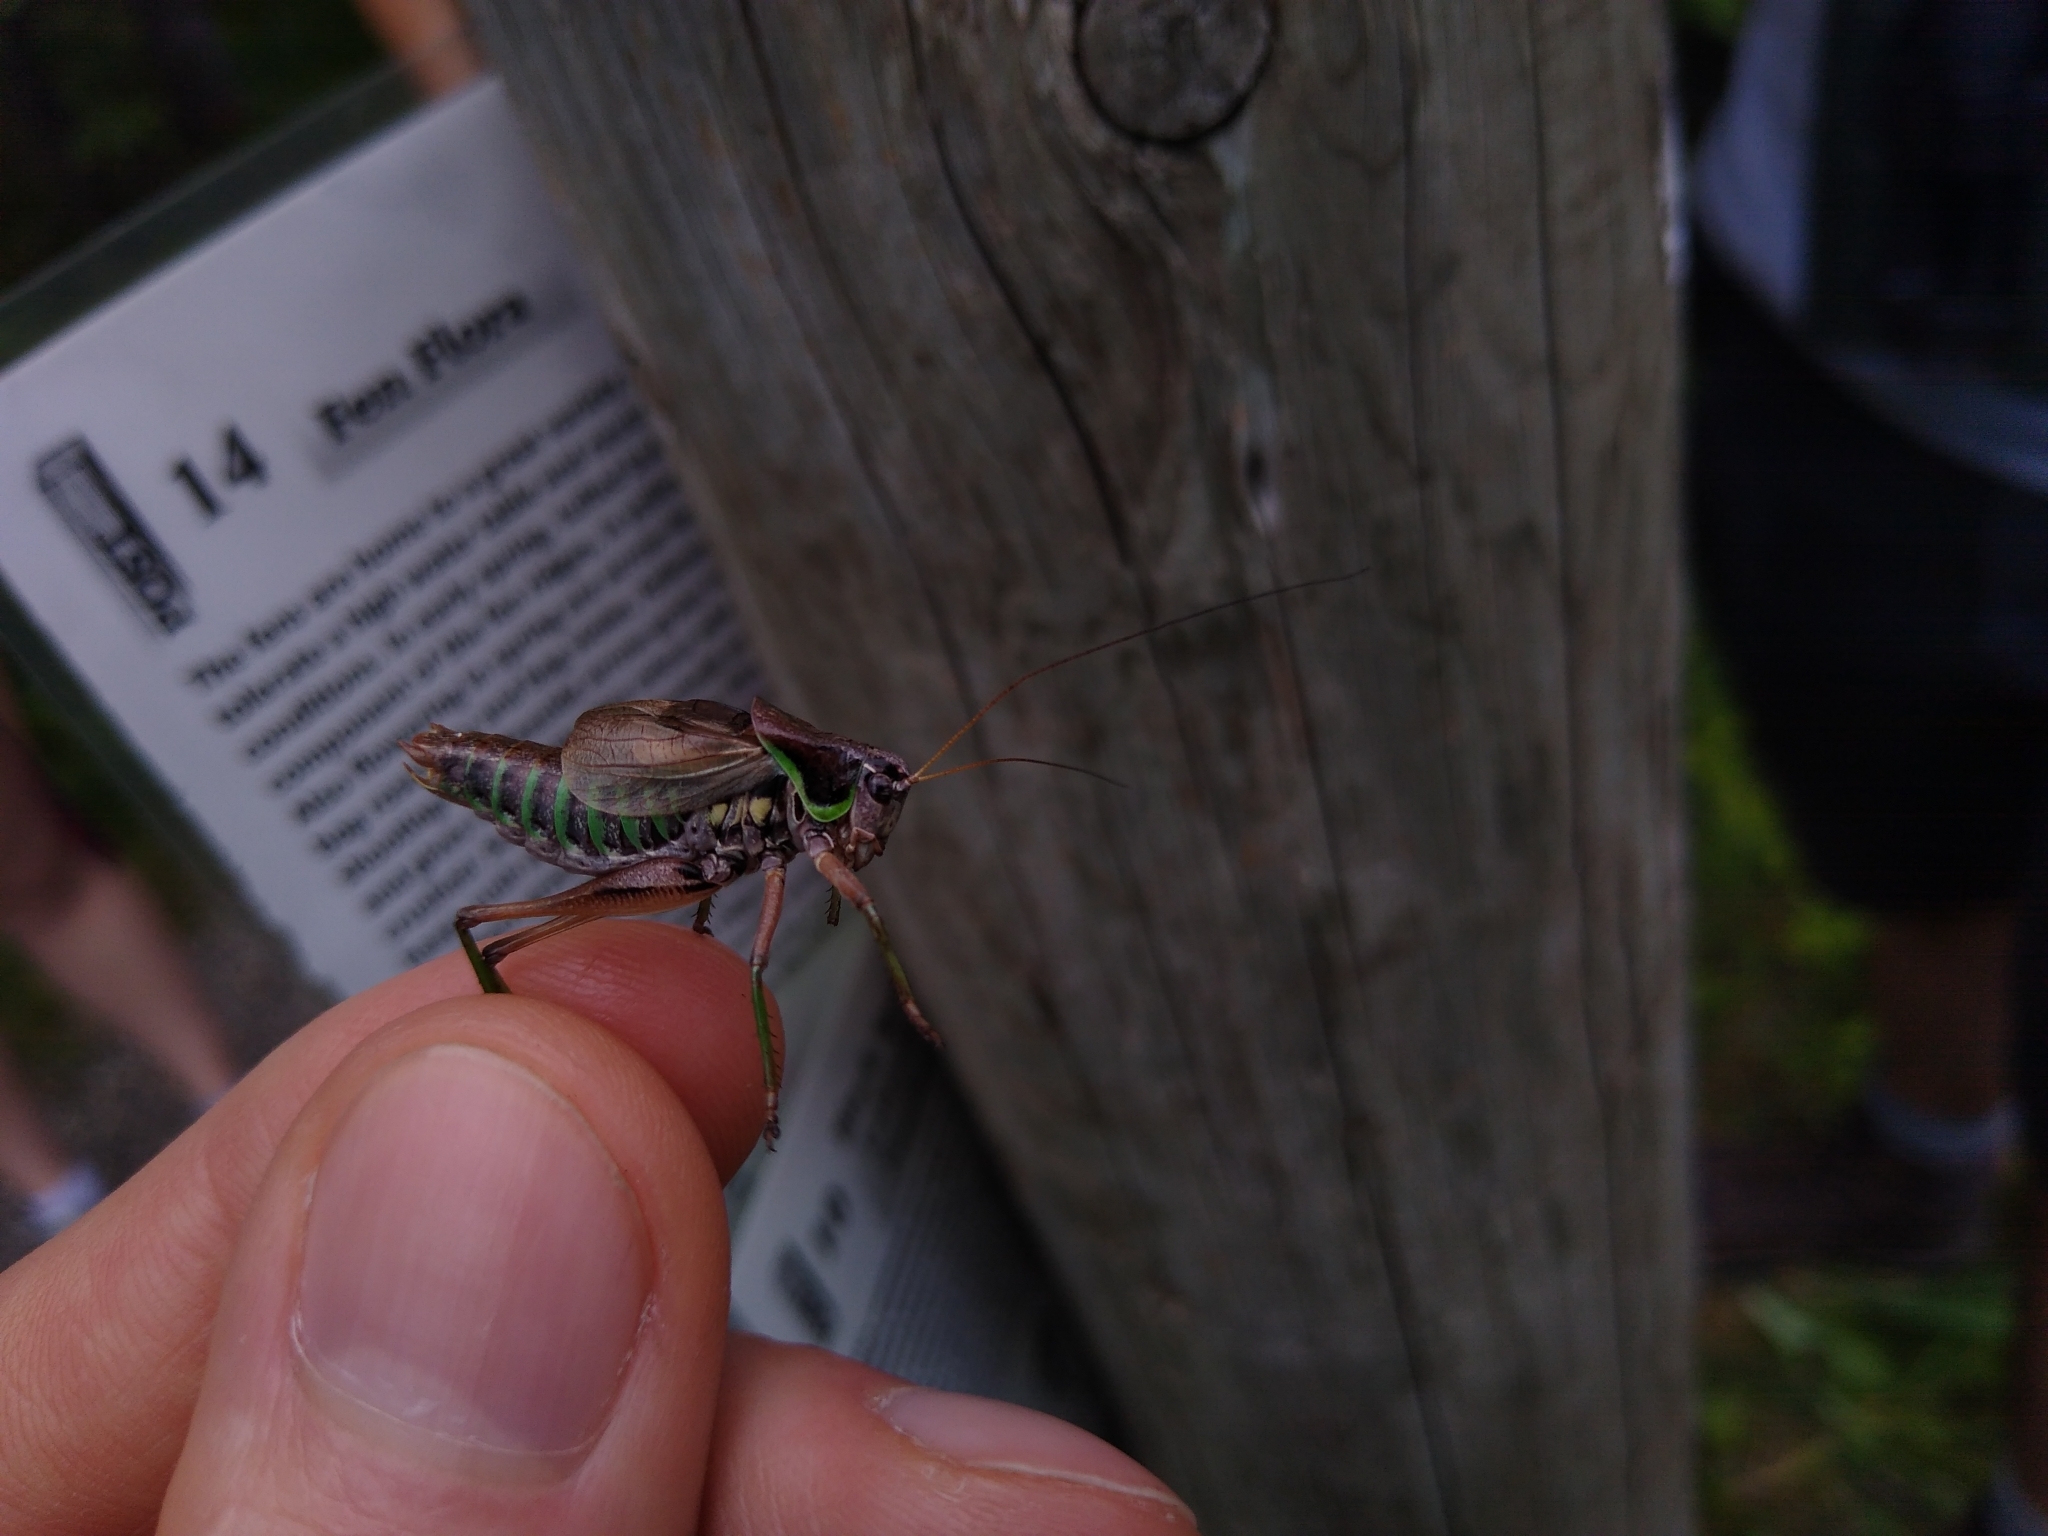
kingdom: Animalia
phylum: Arthropoda
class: Insecta
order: Orthoptera
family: Tettigoniidae
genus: Sphagniana
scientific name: Sphagniana sphagnorum
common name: Bog katydid
